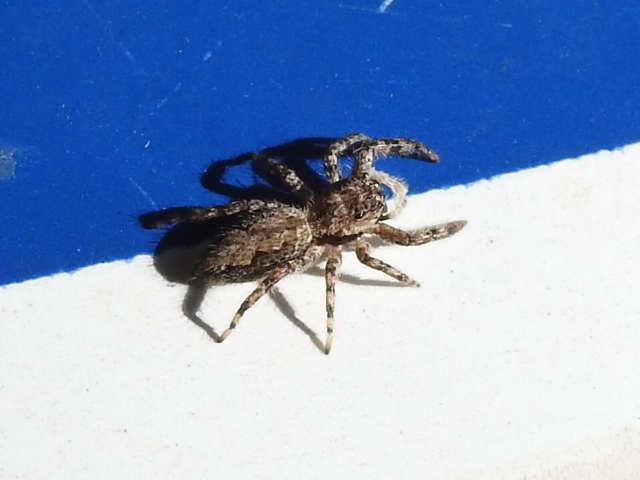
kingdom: Animalia
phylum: Arthropoda
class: Arachnida
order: Araneae
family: Salticidae
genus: Platycryptus
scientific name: Platycryptus undatus
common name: Tan jumping spider
